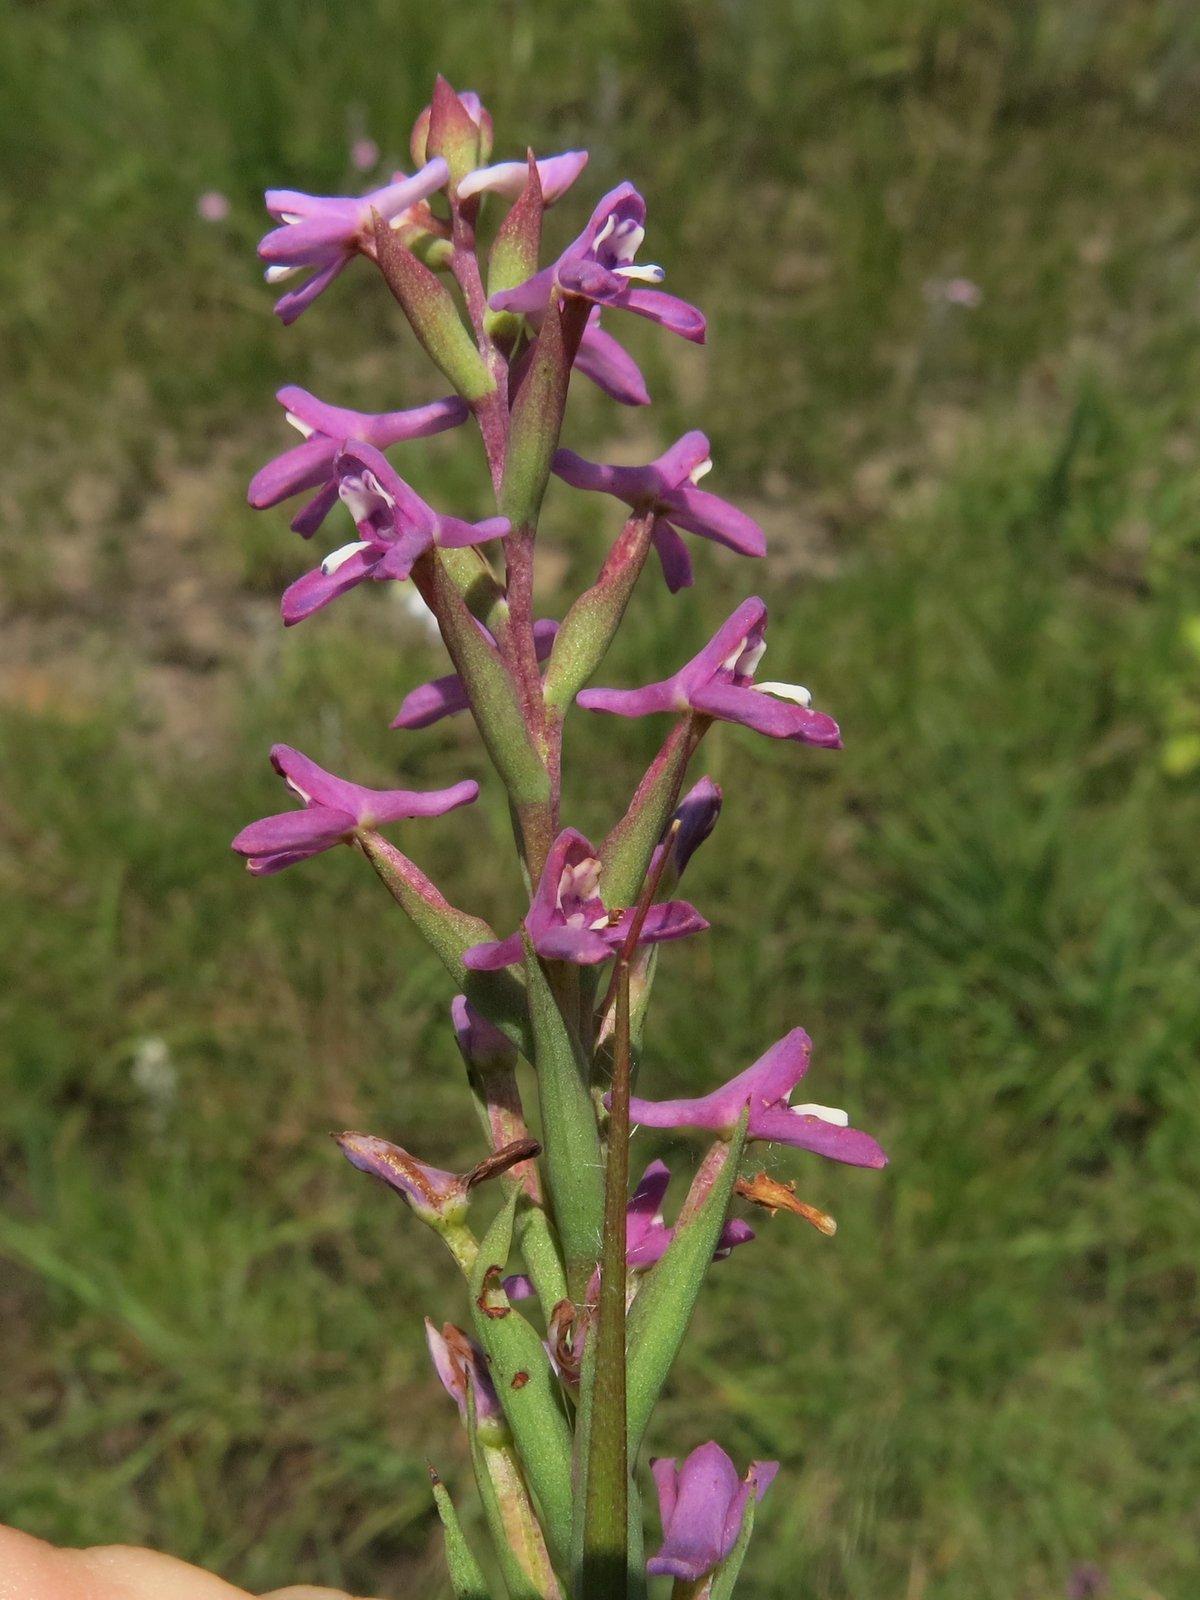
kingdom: Plantae
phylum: Tracheophyta
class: Liliopsida
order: Asparagales
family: Orchidaceae
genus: Disa
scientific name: Disa stachyoides
